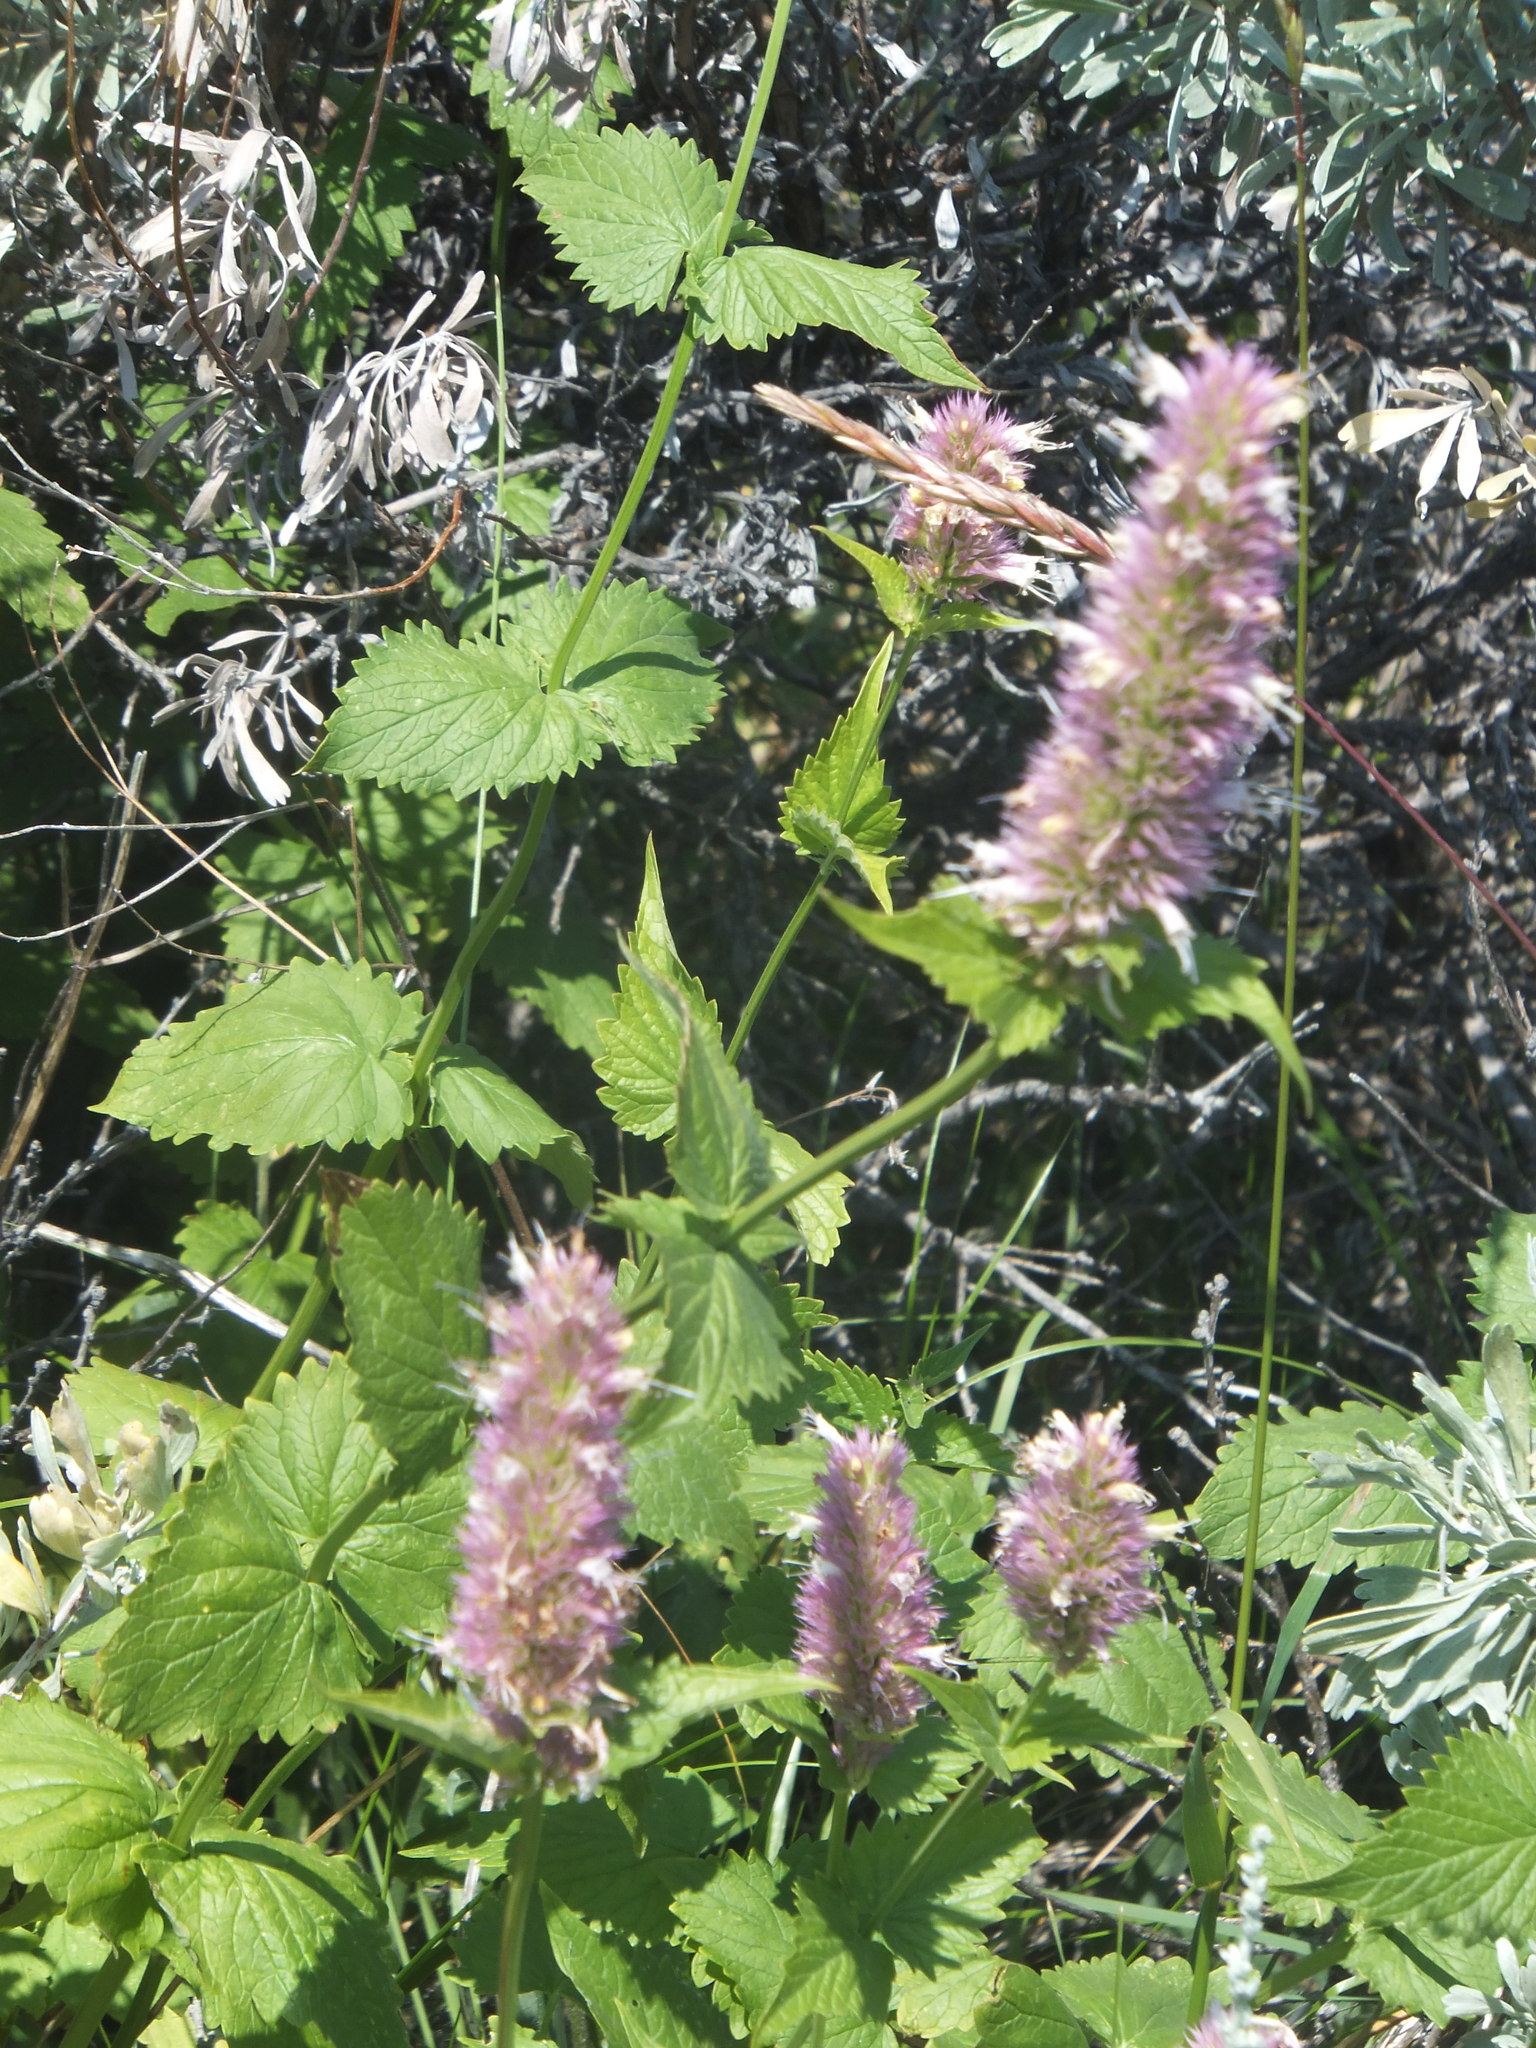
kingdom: Plantae
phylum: Tracheophyta
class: Magnoliopsida
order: Lamiales
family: Lamiaceae
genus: Agastache
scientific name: Agastache urticifolia
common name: Horsemint giant hyssop
